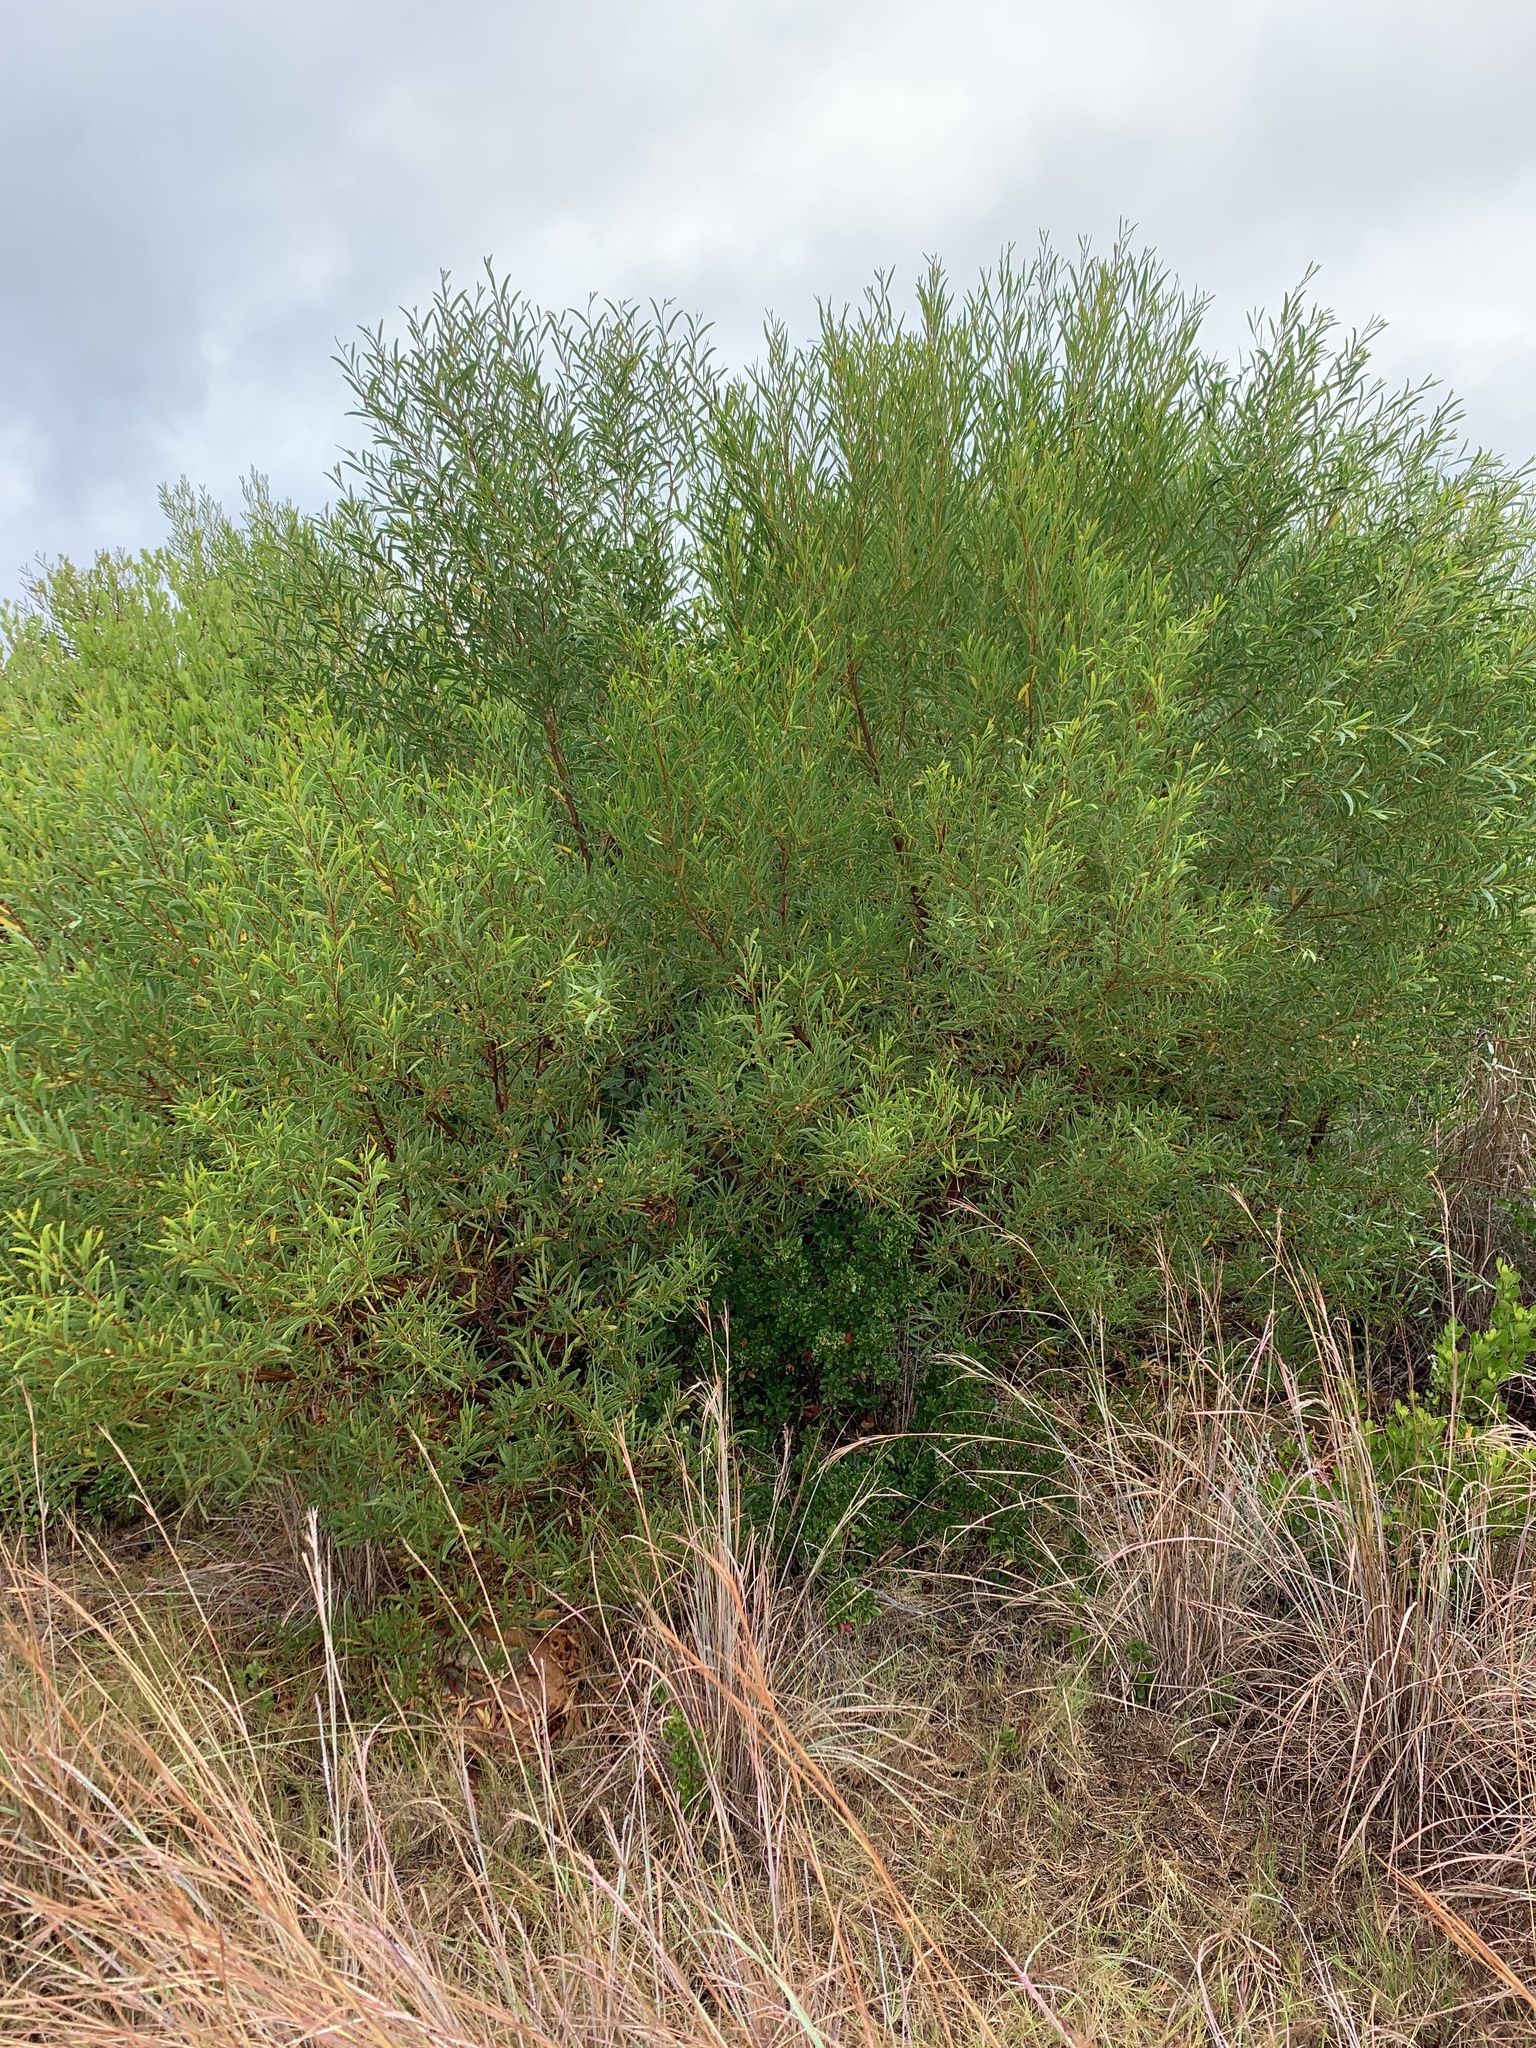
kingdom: Plantae
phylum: Tracheophyta
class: Magnoliopsida
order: Fabales
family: Fabaceae
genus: Acacia
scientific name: Acacia cyclops
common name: Coastal wattle
